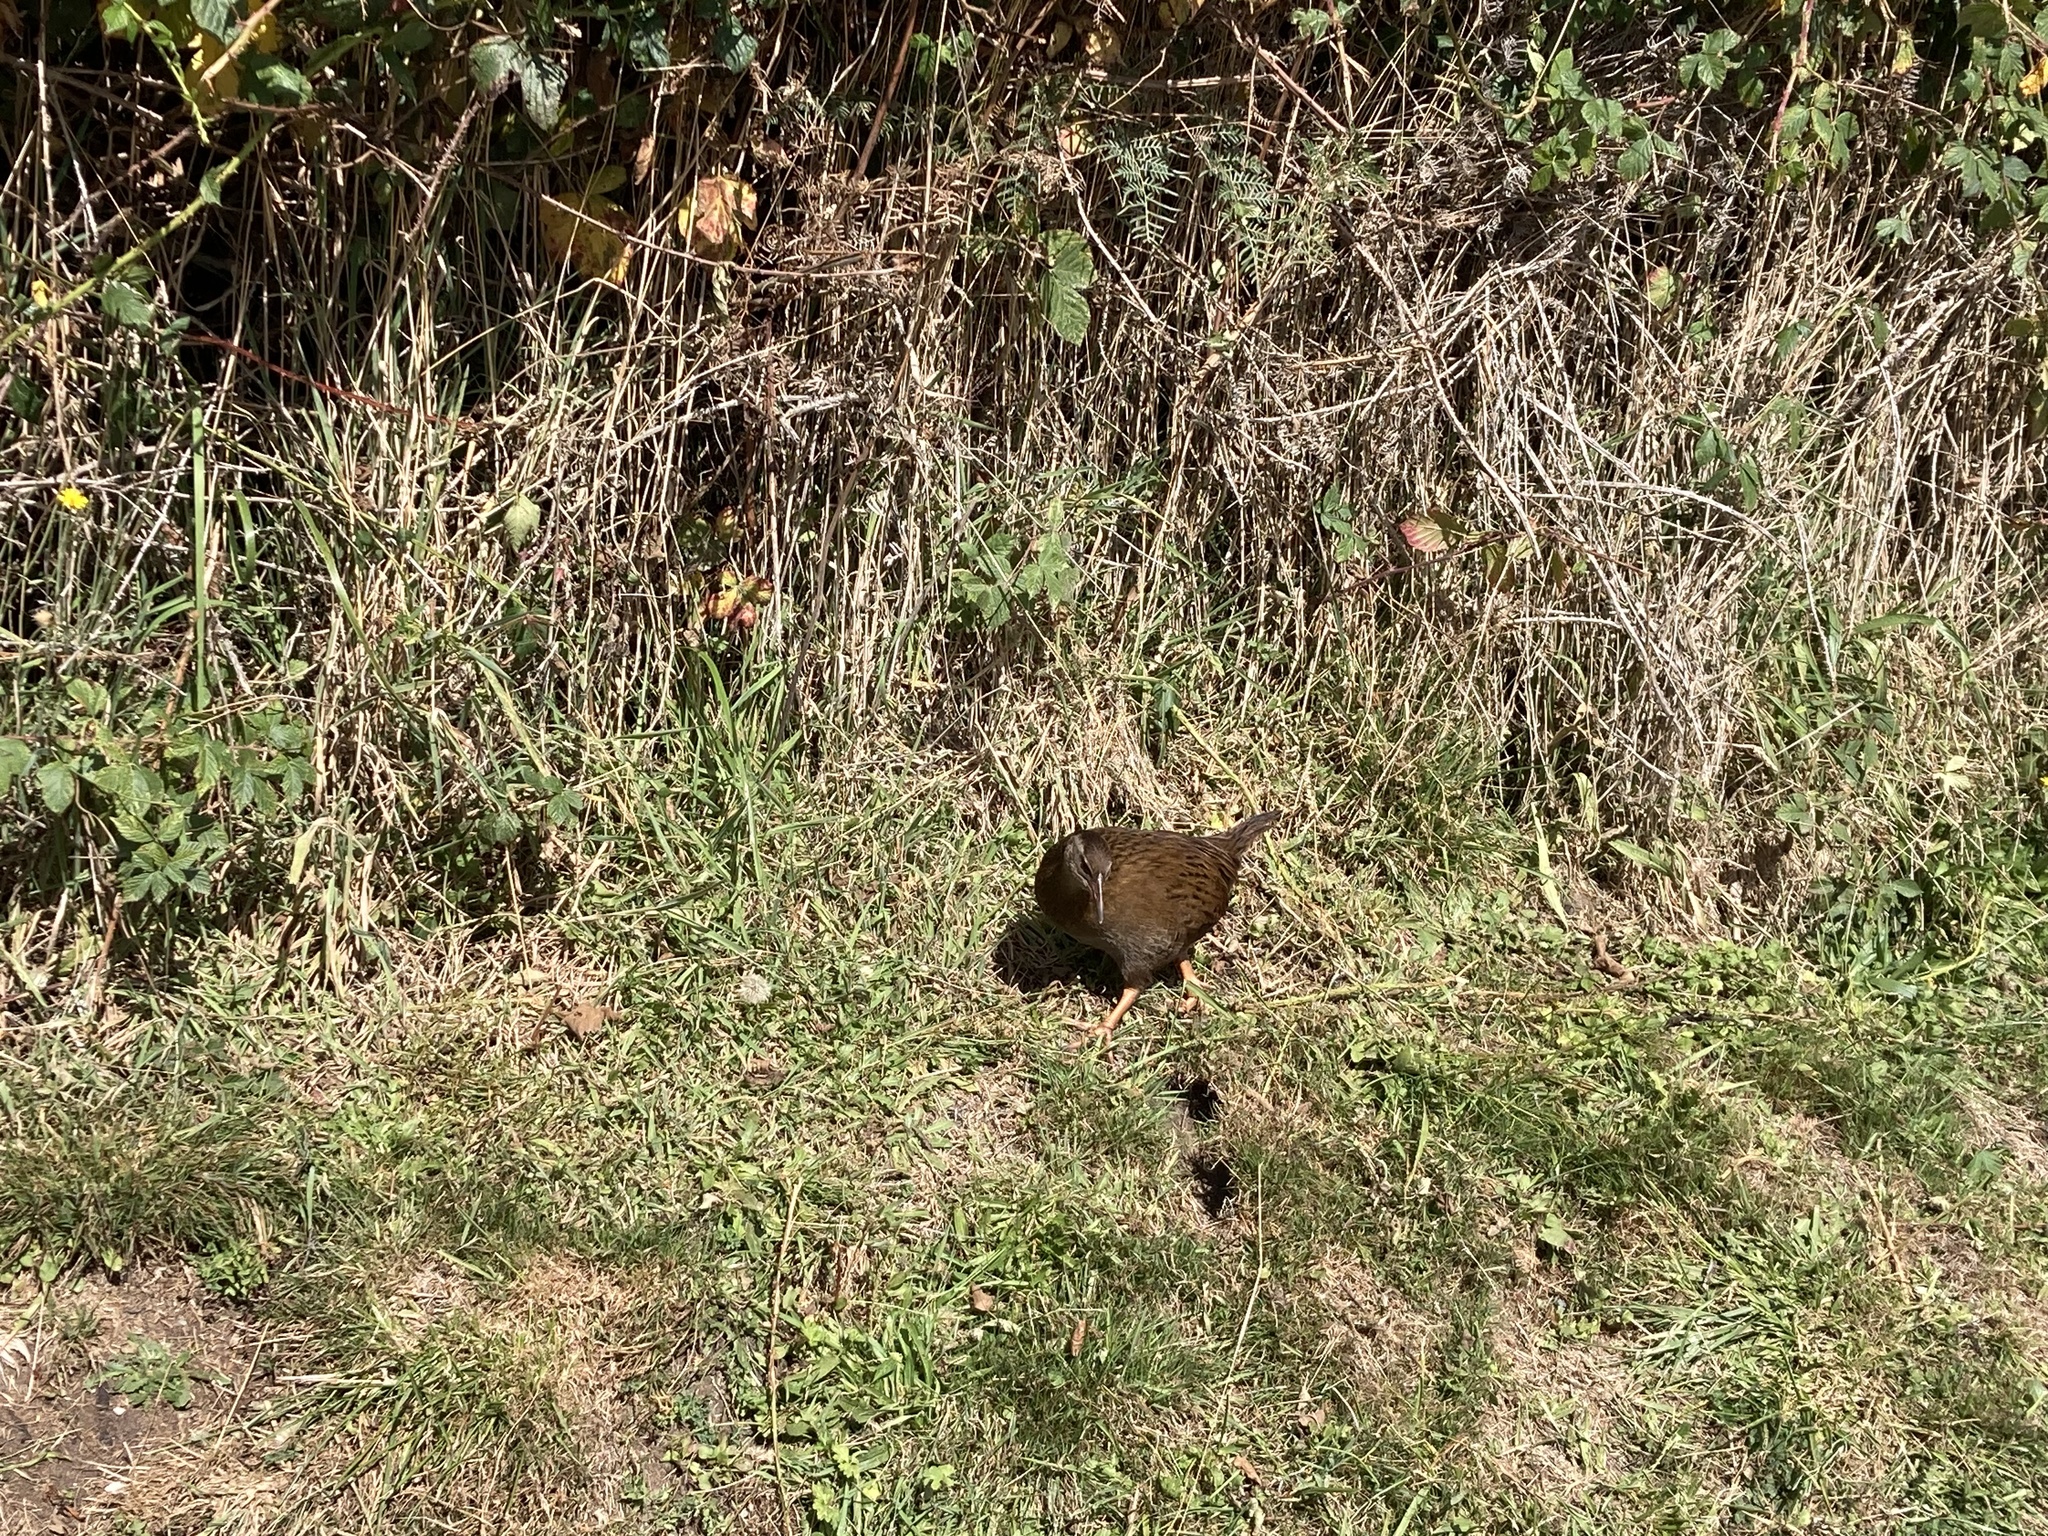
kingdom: Animalia
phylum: Chordata
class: Aves
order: Gruiformes
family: Rallidae
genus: Gallirallus
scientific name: Gallirallus australis
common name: Weka
